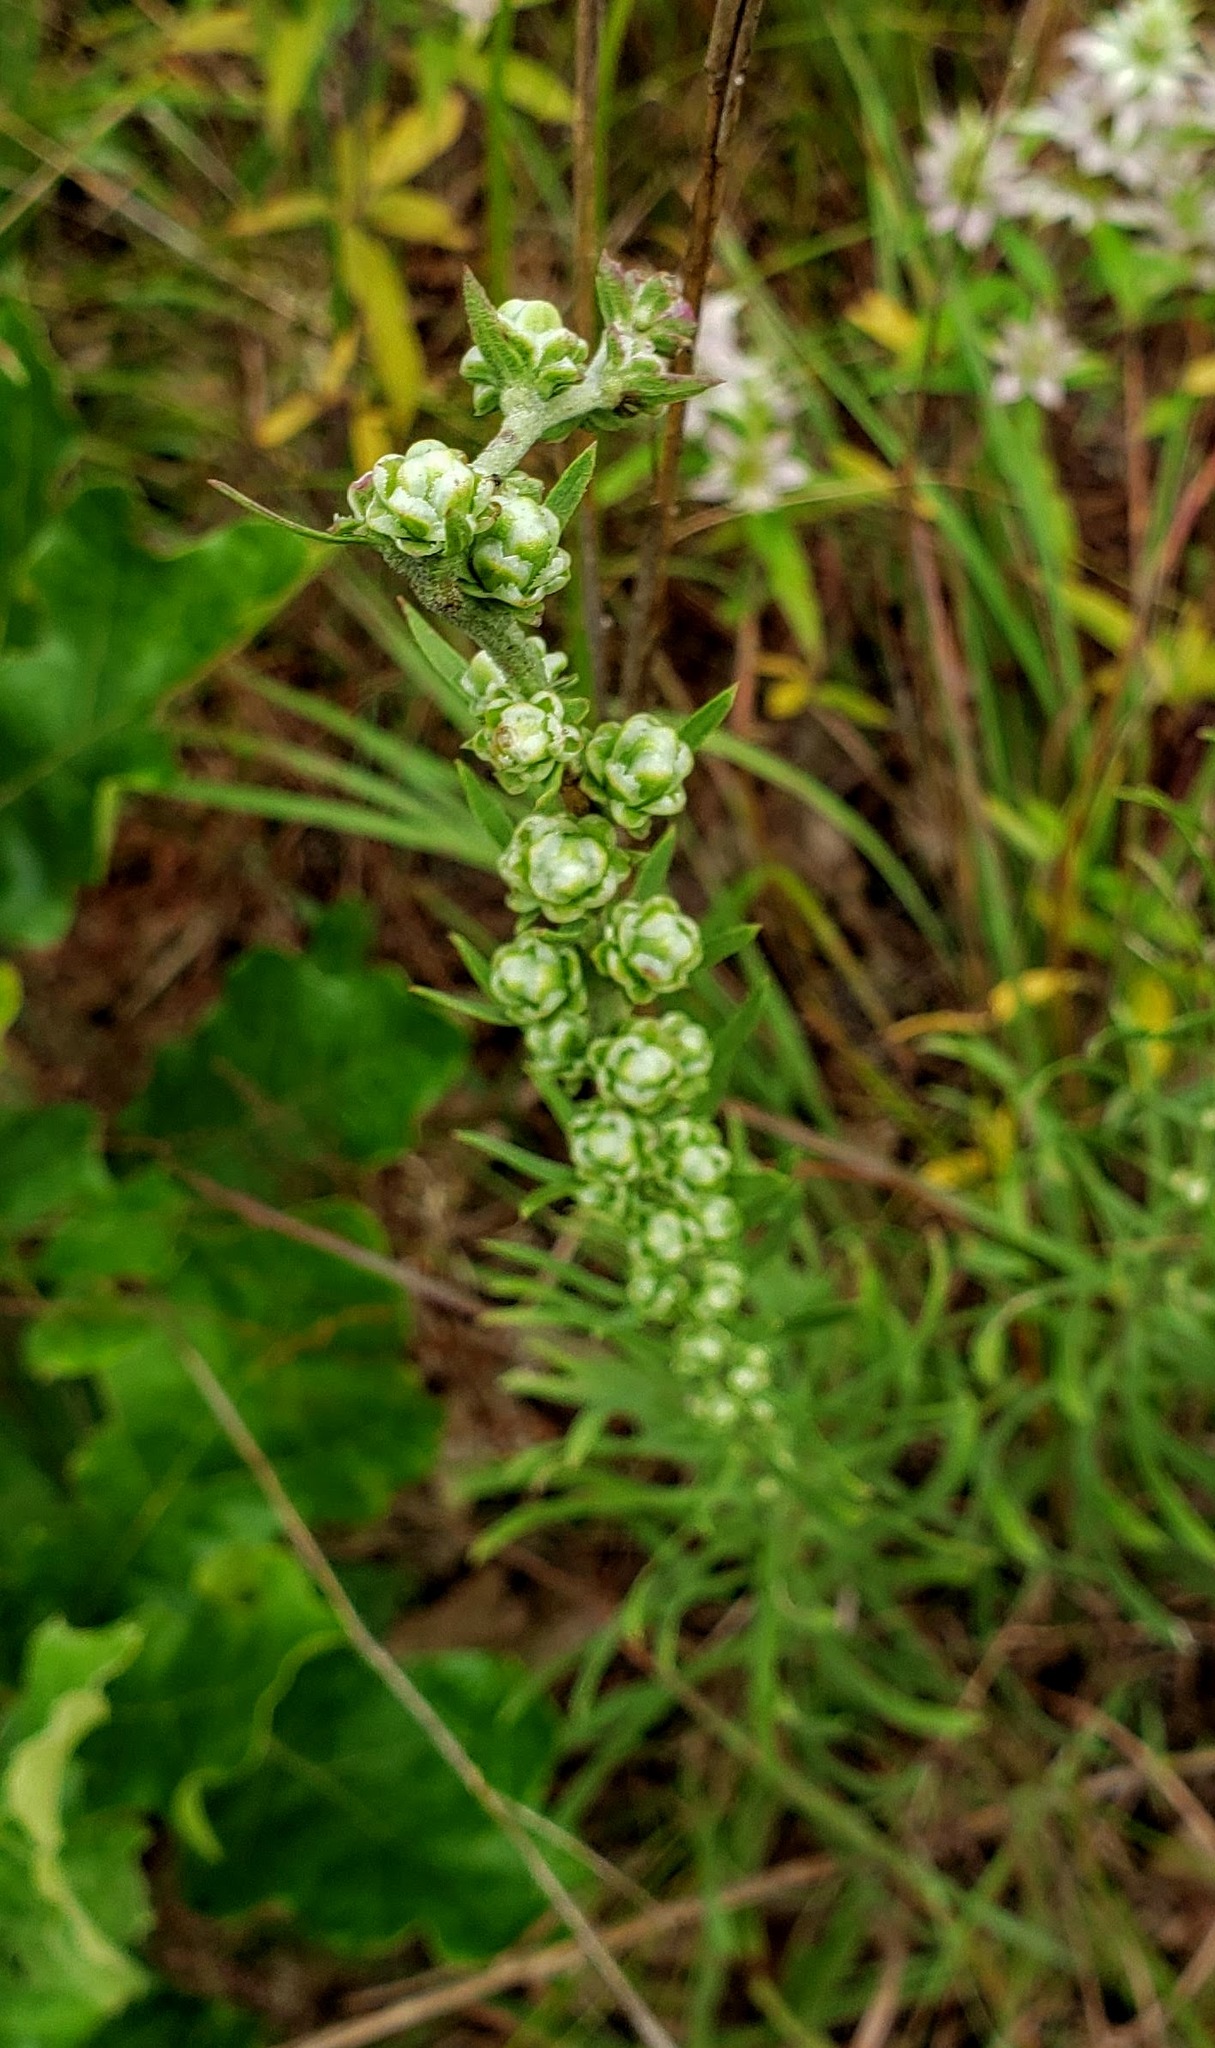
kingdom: Plantae
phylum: Tracheophyta
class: Magnoliopsida
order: Asterales
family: Asteraceae
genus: Liatris
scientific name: Liatris aspera
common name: Lacerate blazing-star
